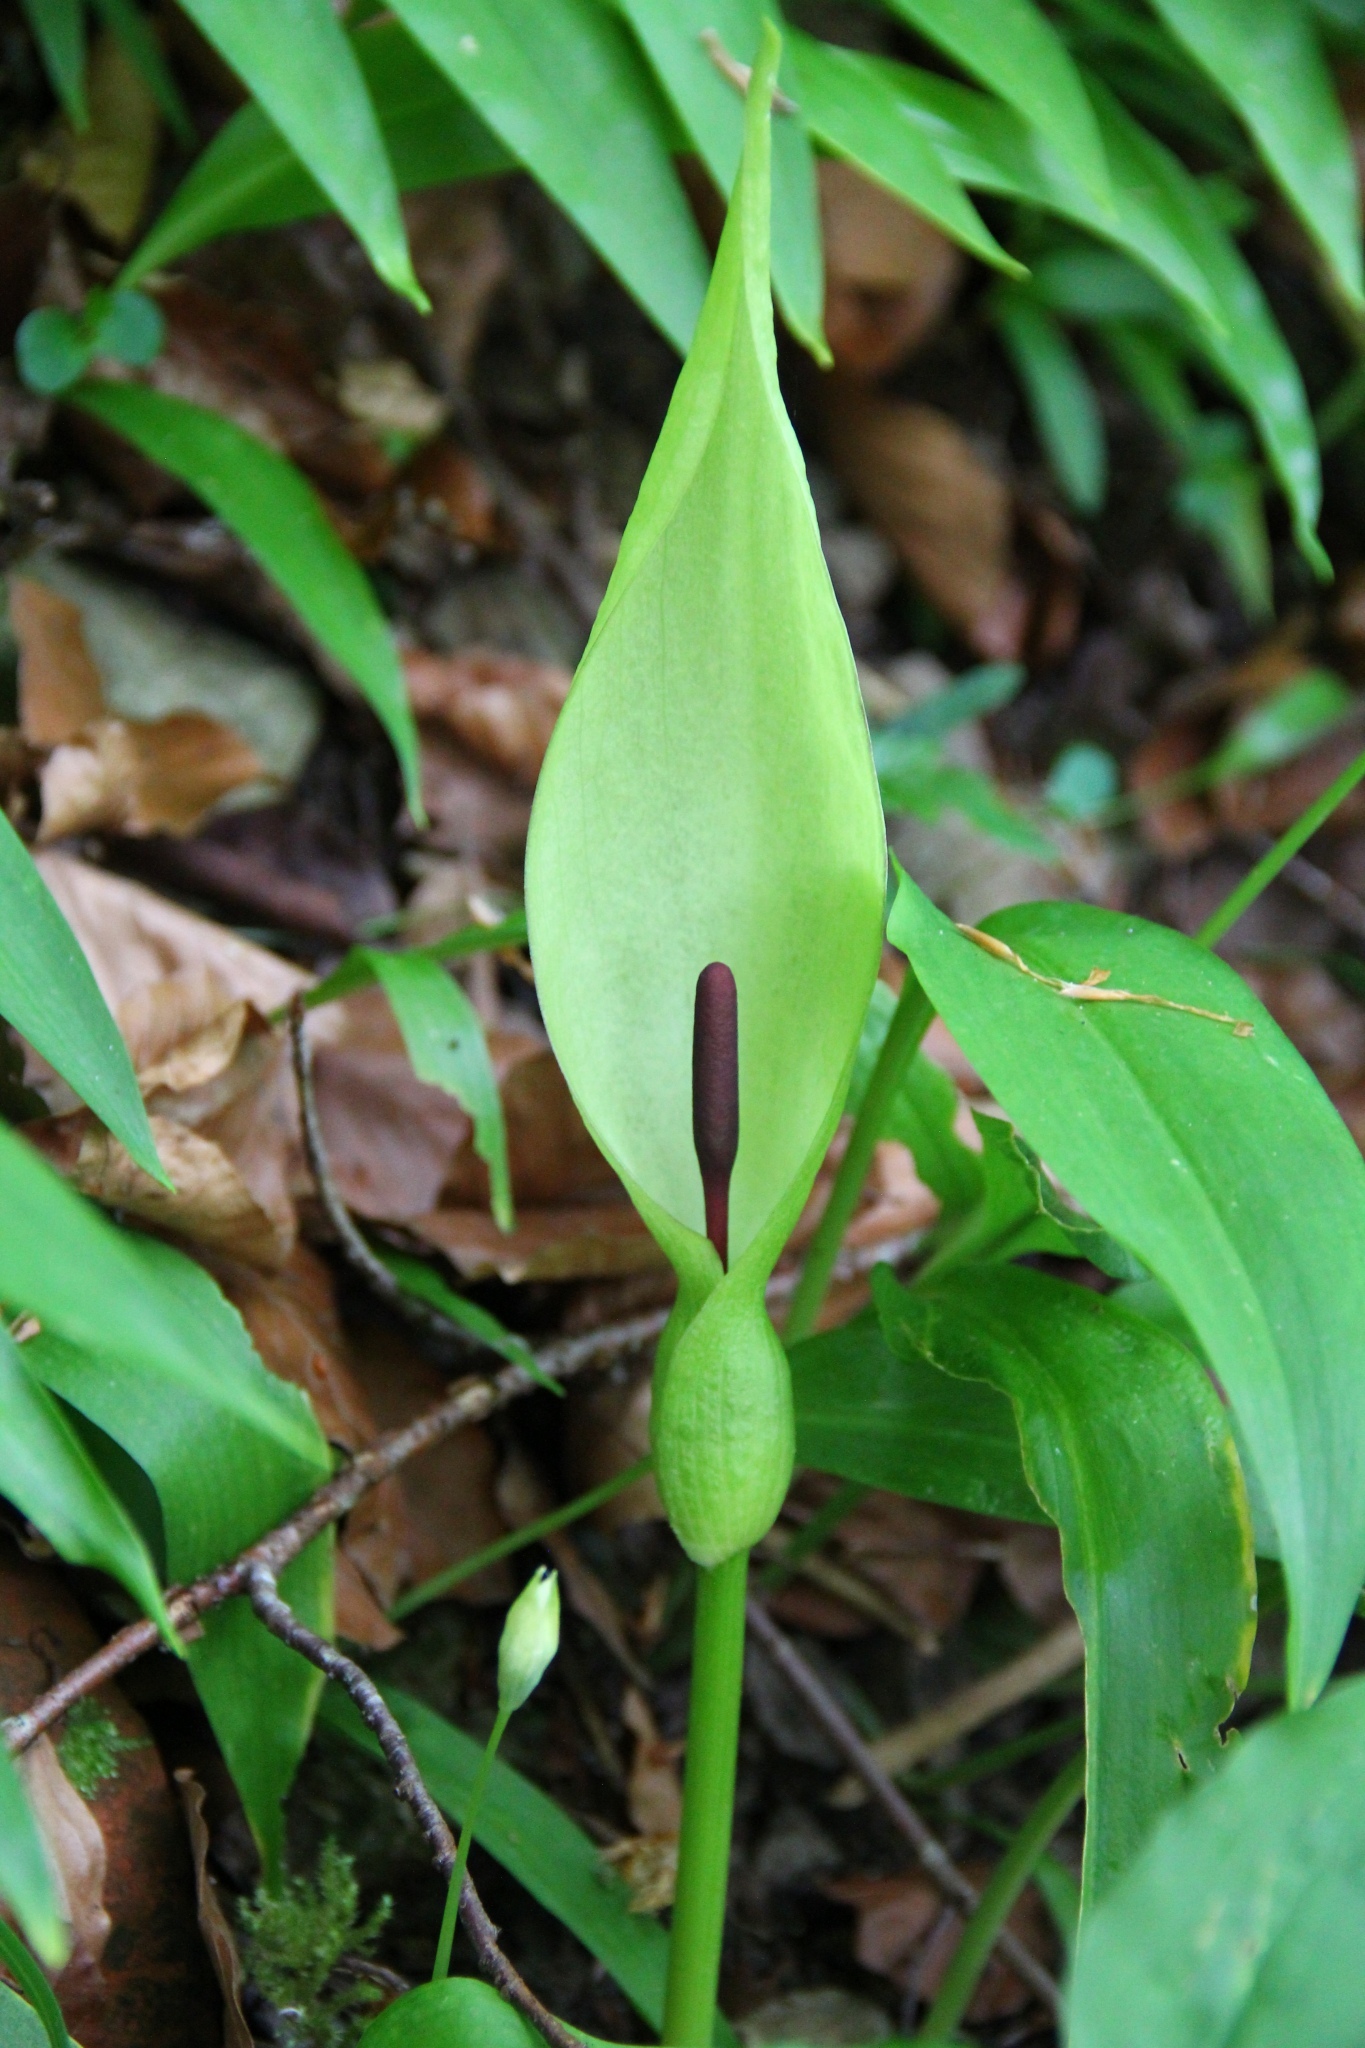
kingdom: Plantae
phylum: Tracheophyta
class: Liliopsida
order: Alismatales
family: Araceae
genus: Arum
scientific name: Arum maculatum
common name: Lords-and-ladies
